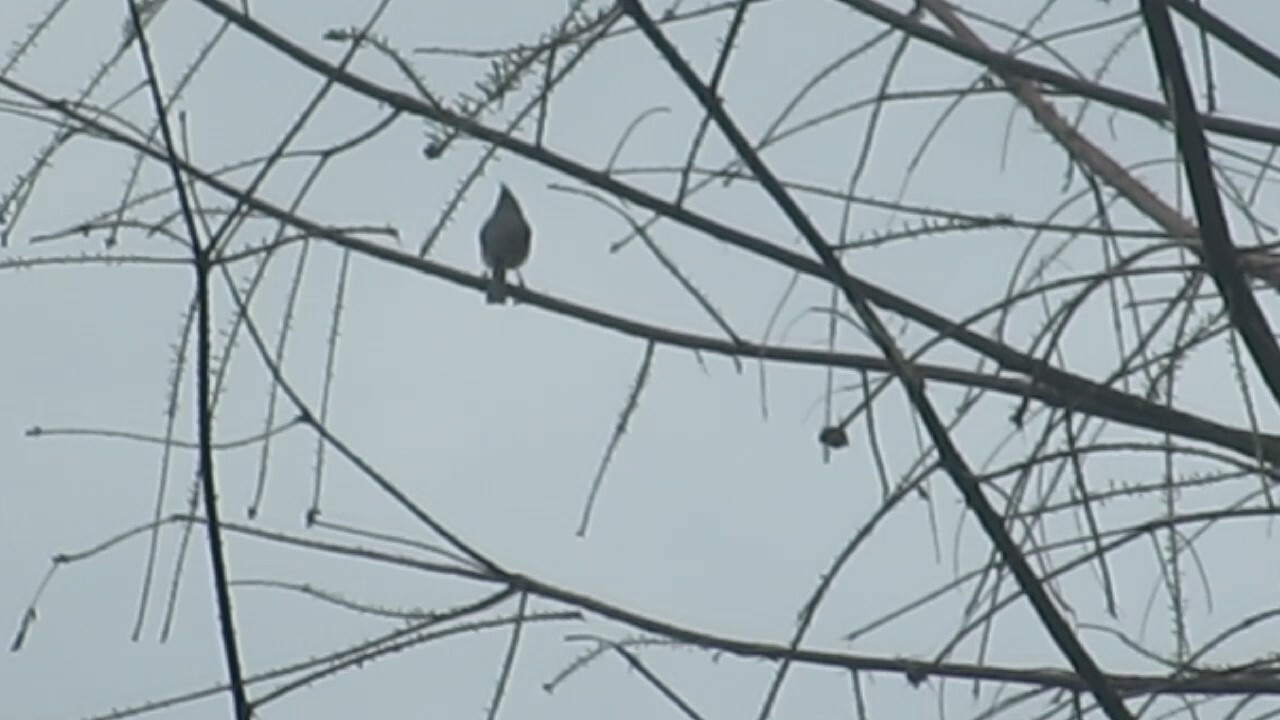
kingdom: Animalia
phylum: Chordata
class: Aves
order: Passeriformes
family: Paridae
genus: Baeolophus
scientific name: Baeolophus bicolor
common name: Tufted titmouse
